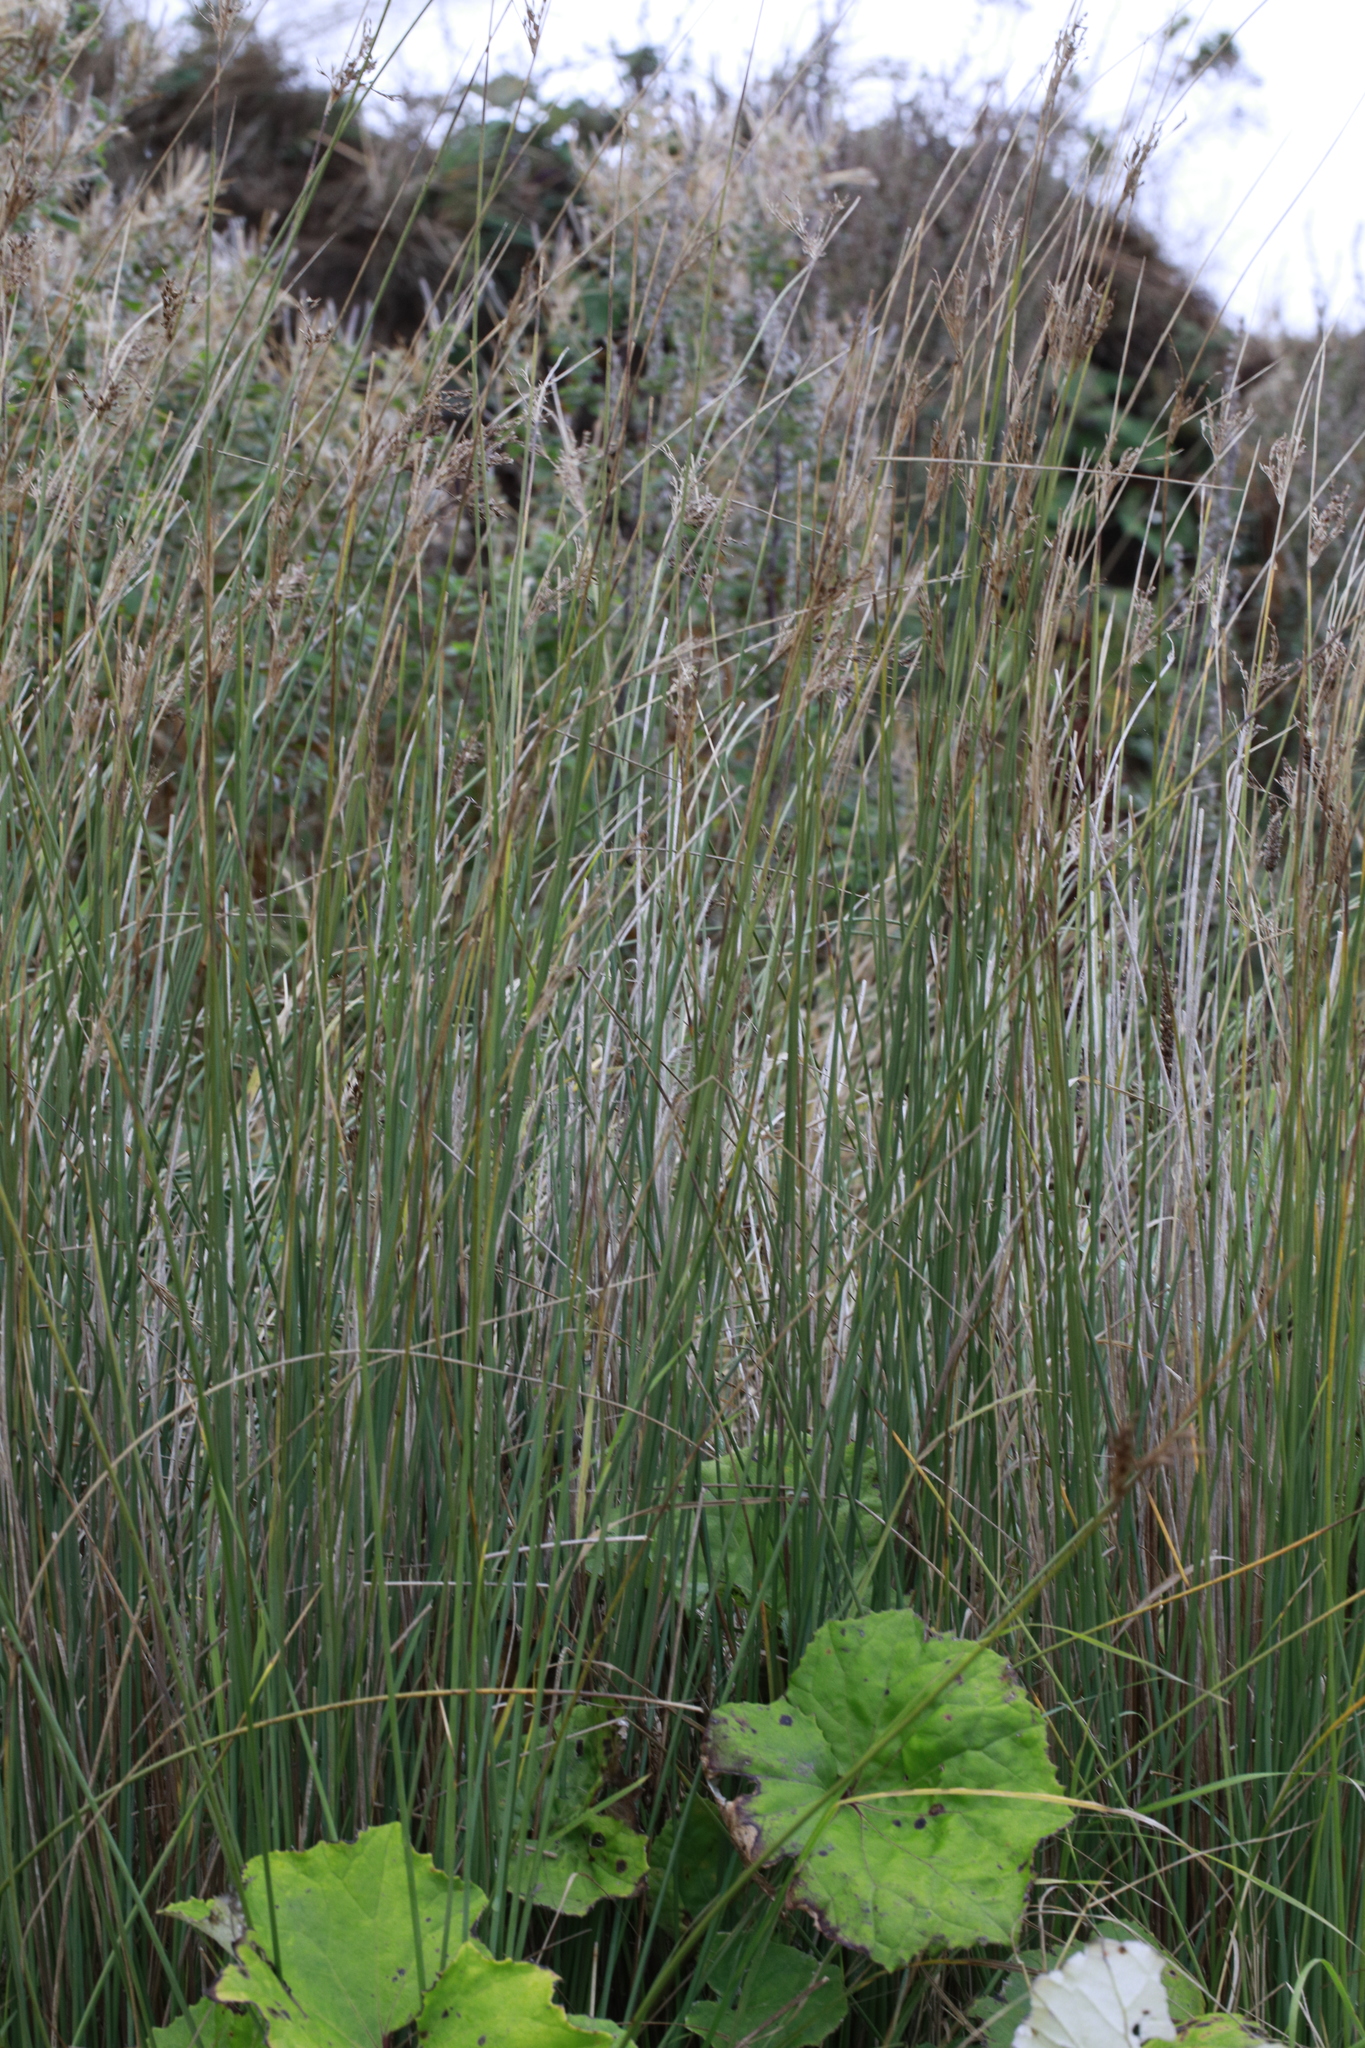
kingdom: Plantae
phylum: Tracheophyta
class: Liliopsida
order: Poales
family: Poaceae
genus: Phragmites
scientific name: Phragmites australis
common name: Common reed
